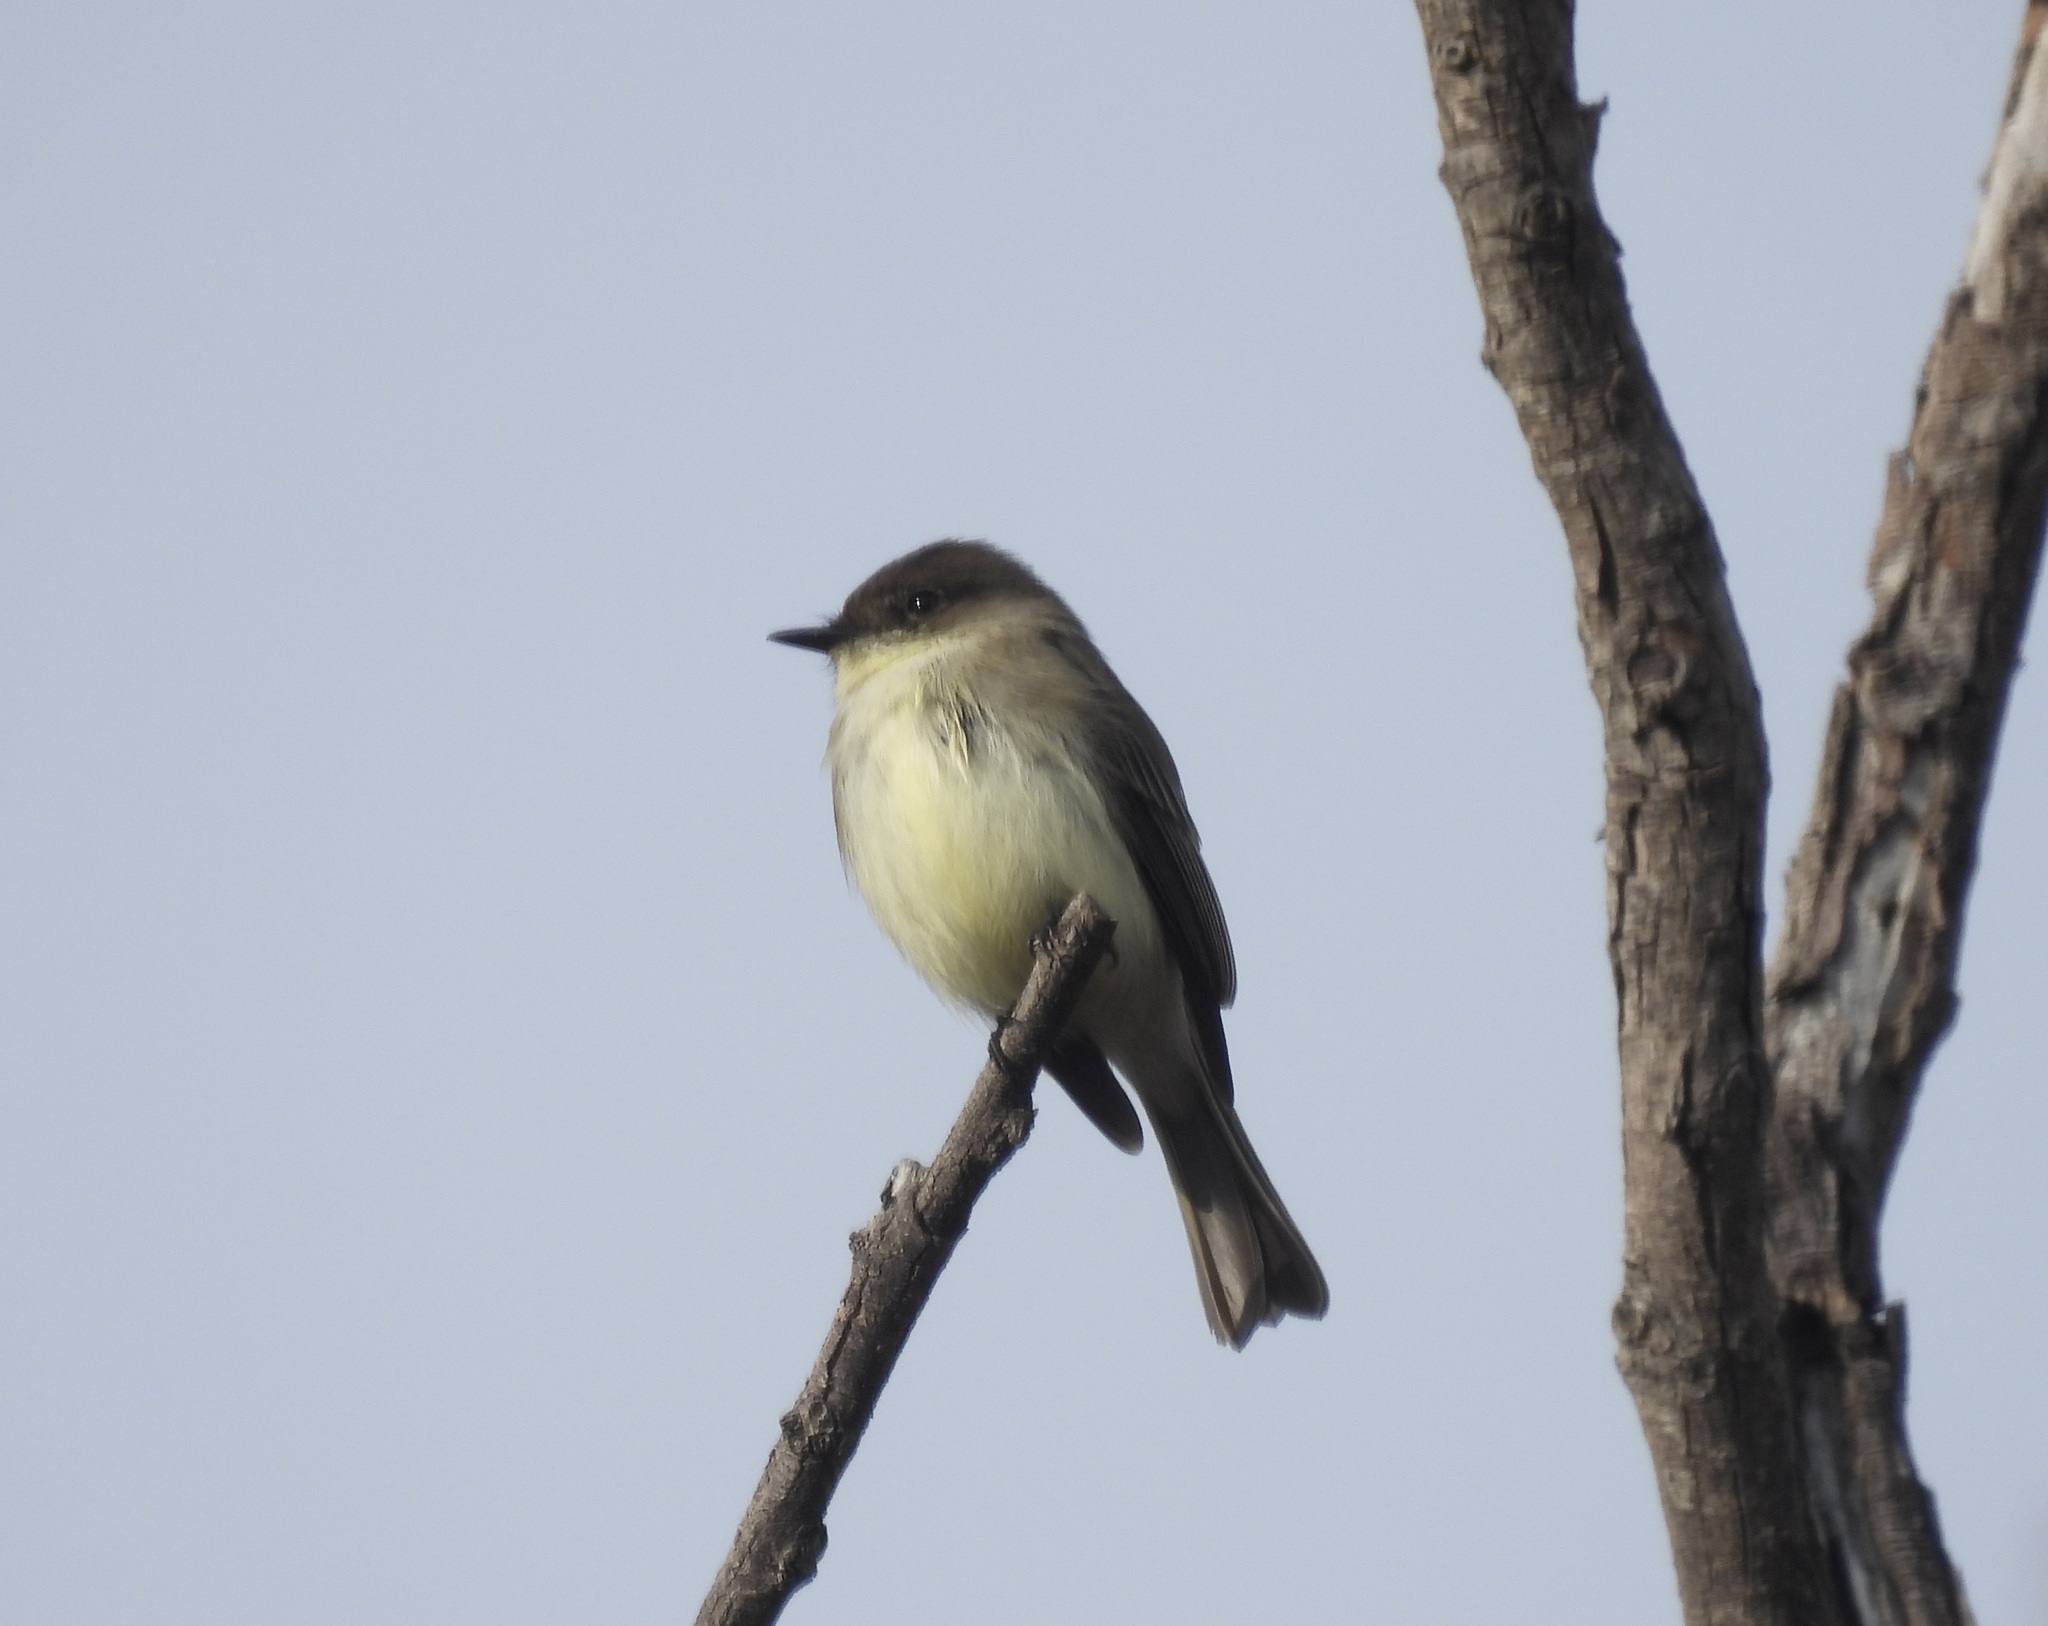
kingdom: Animalia
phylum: Chordata
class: Aves
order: Passeriformes
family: Tyrannidae
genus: Sayornis
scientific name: Sayornis phoebe
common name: Eastern phoebe
